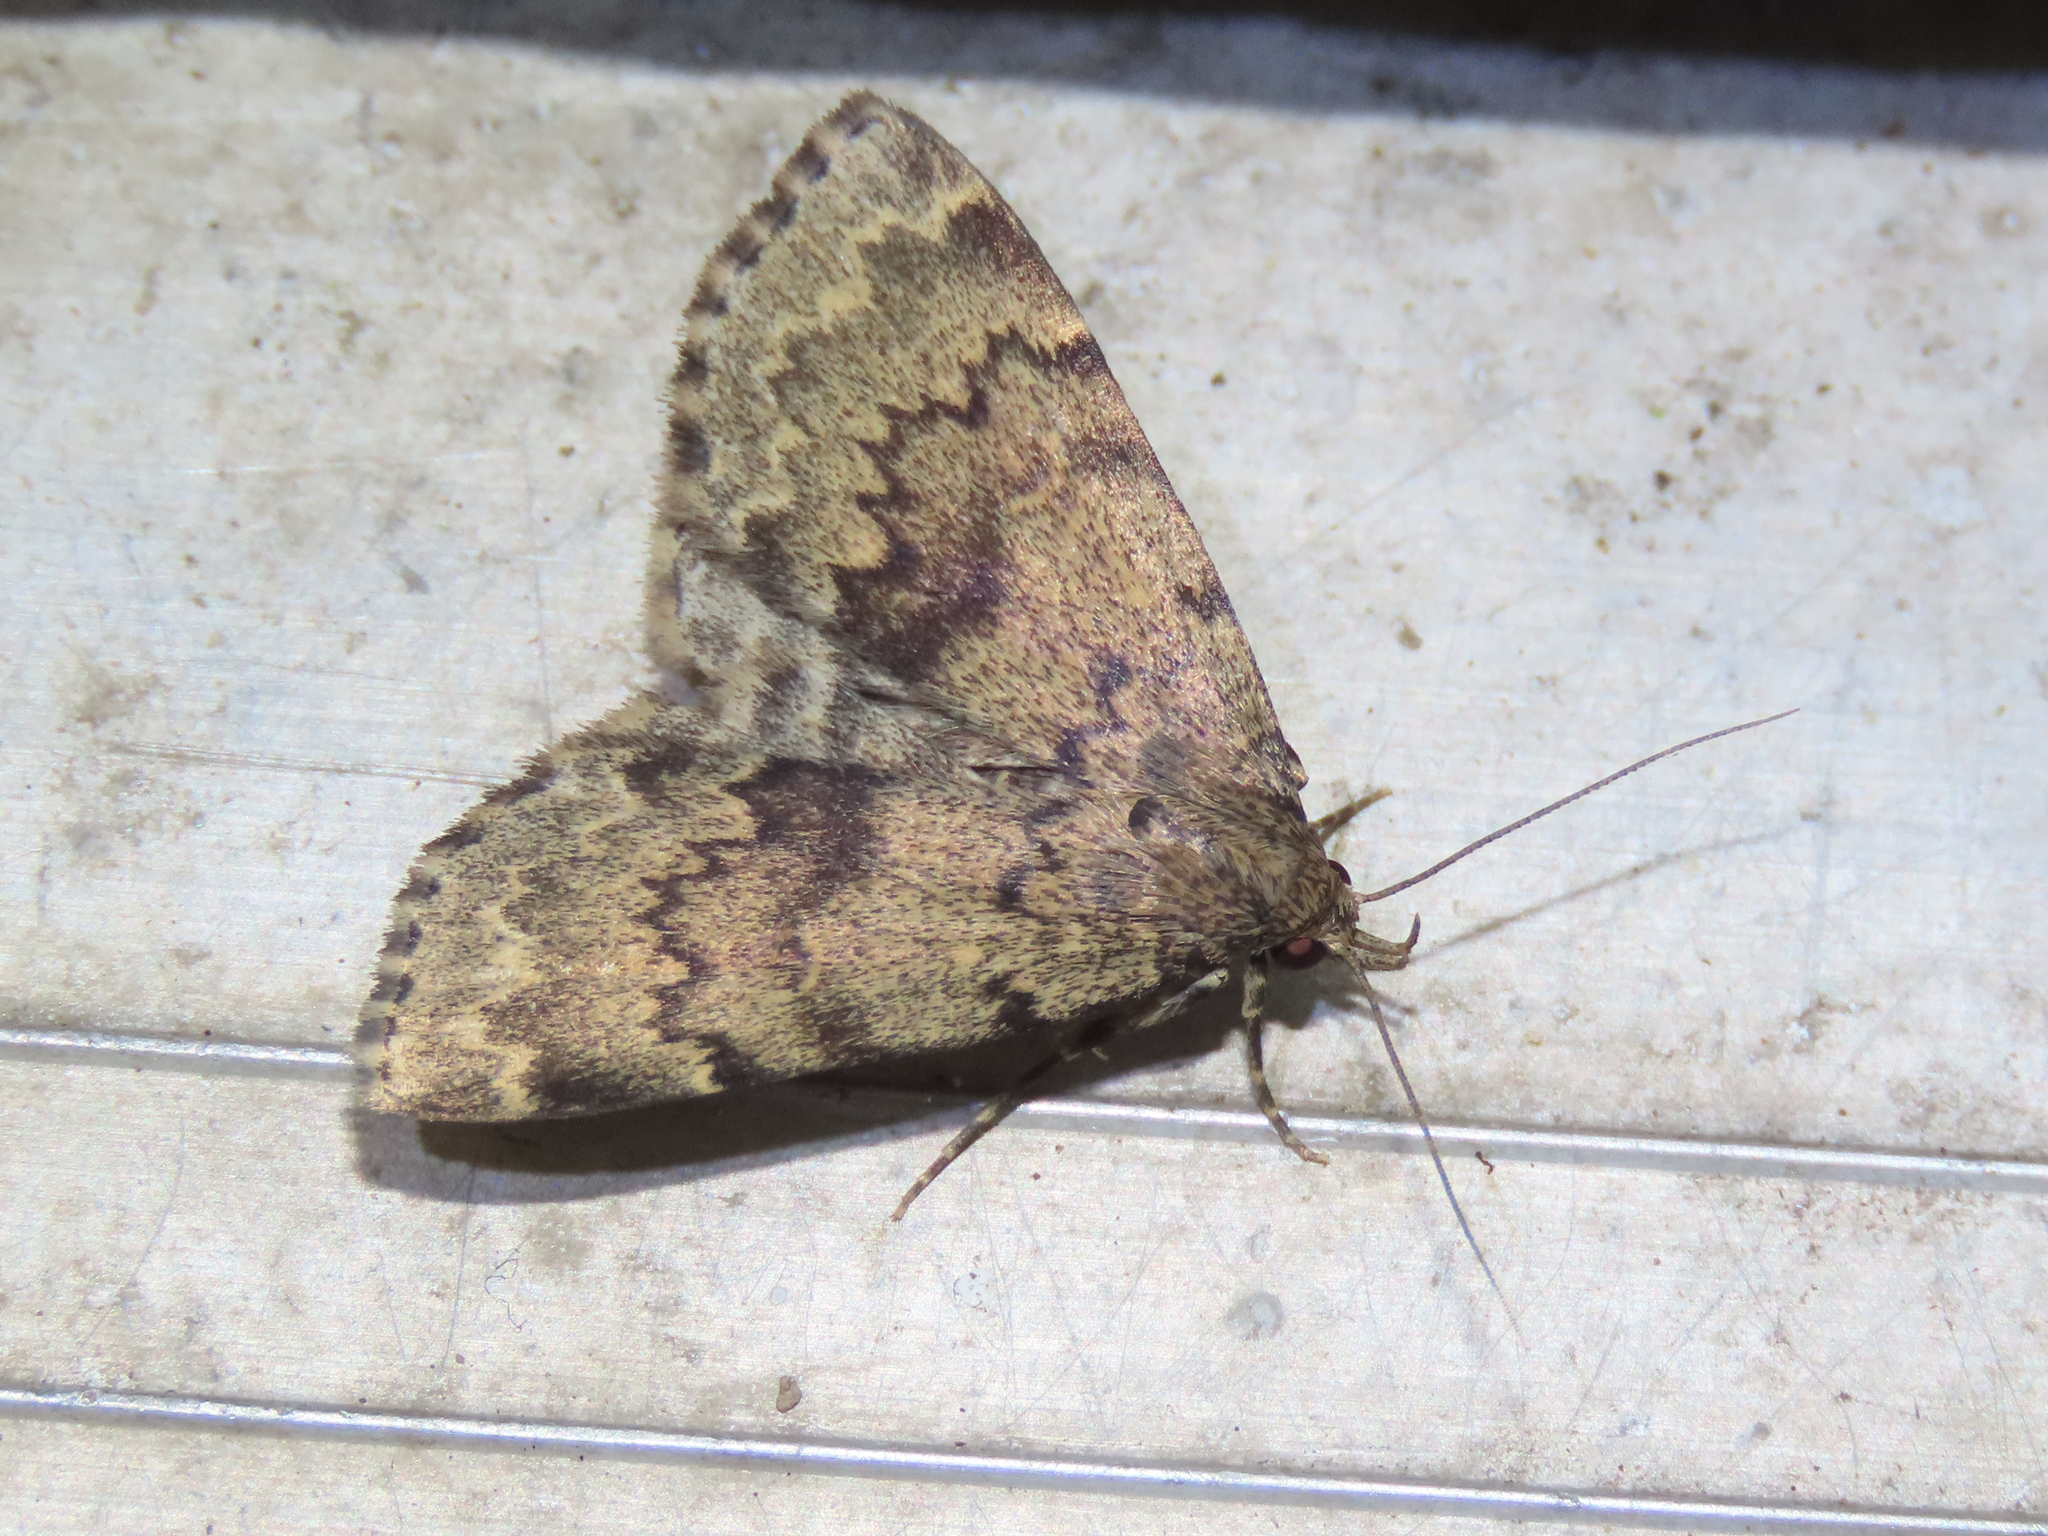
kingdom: Animalia
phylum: Arthropoda
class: Insecta
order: Lepidoptera
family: Erebidae
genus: Idia
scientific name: Idia denticulalis
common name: Toothed idia moth
